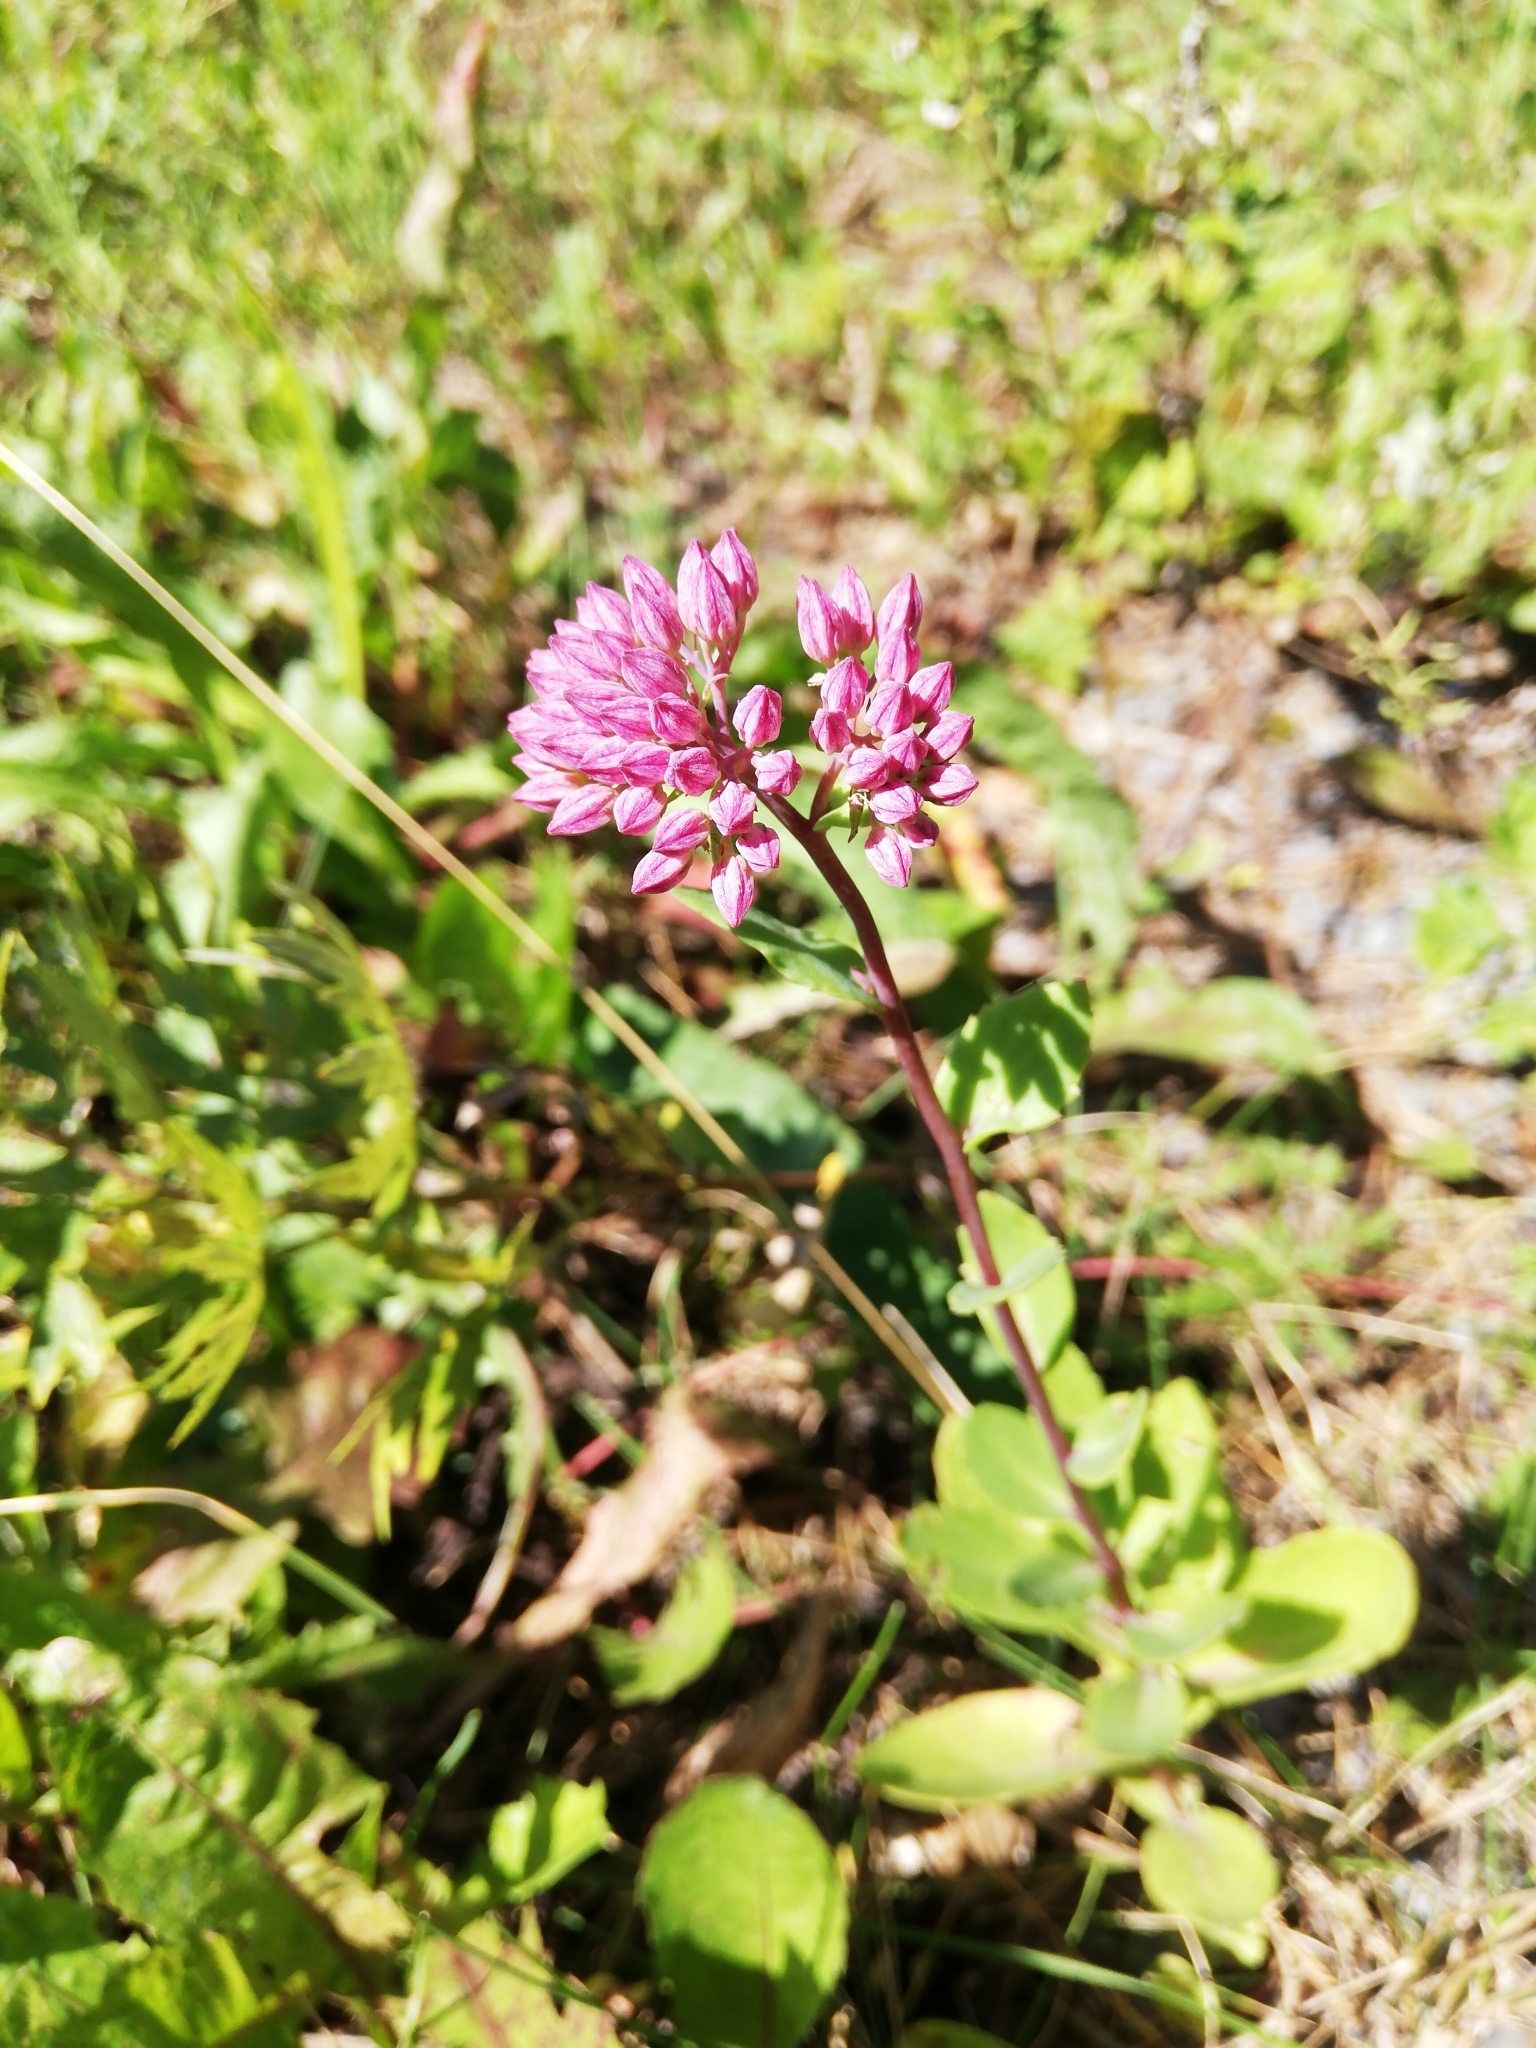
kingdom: Plantae
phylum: Tracheophyta
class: Magnoliopsida
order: Saxifragales
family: Crassulaceae
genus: Hylotelephium
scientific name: Hylotelephium telephium
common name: Live-forever
